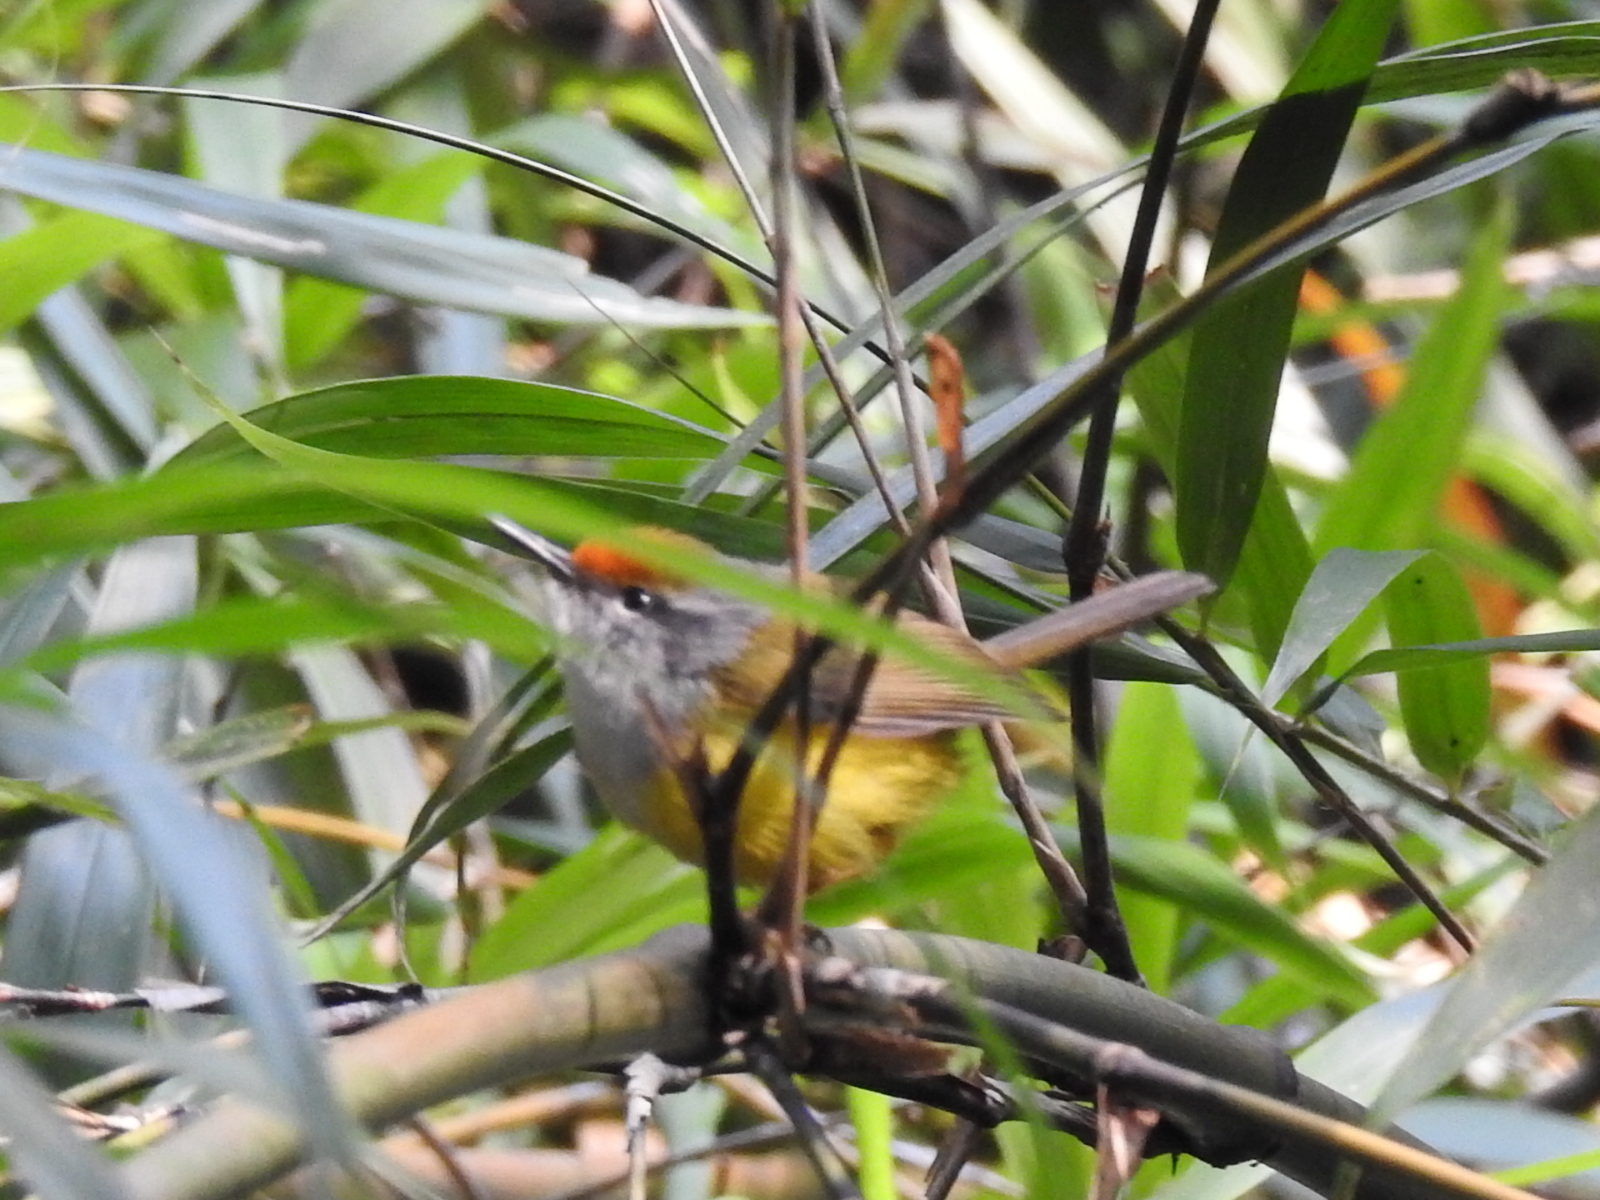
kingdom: Animalia
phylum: Chordata
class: Aves
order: Passeriformes
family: Cettiidae
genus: Phyllergates
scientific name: Phyllergates cuculatus
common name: Mountain tailorbird
